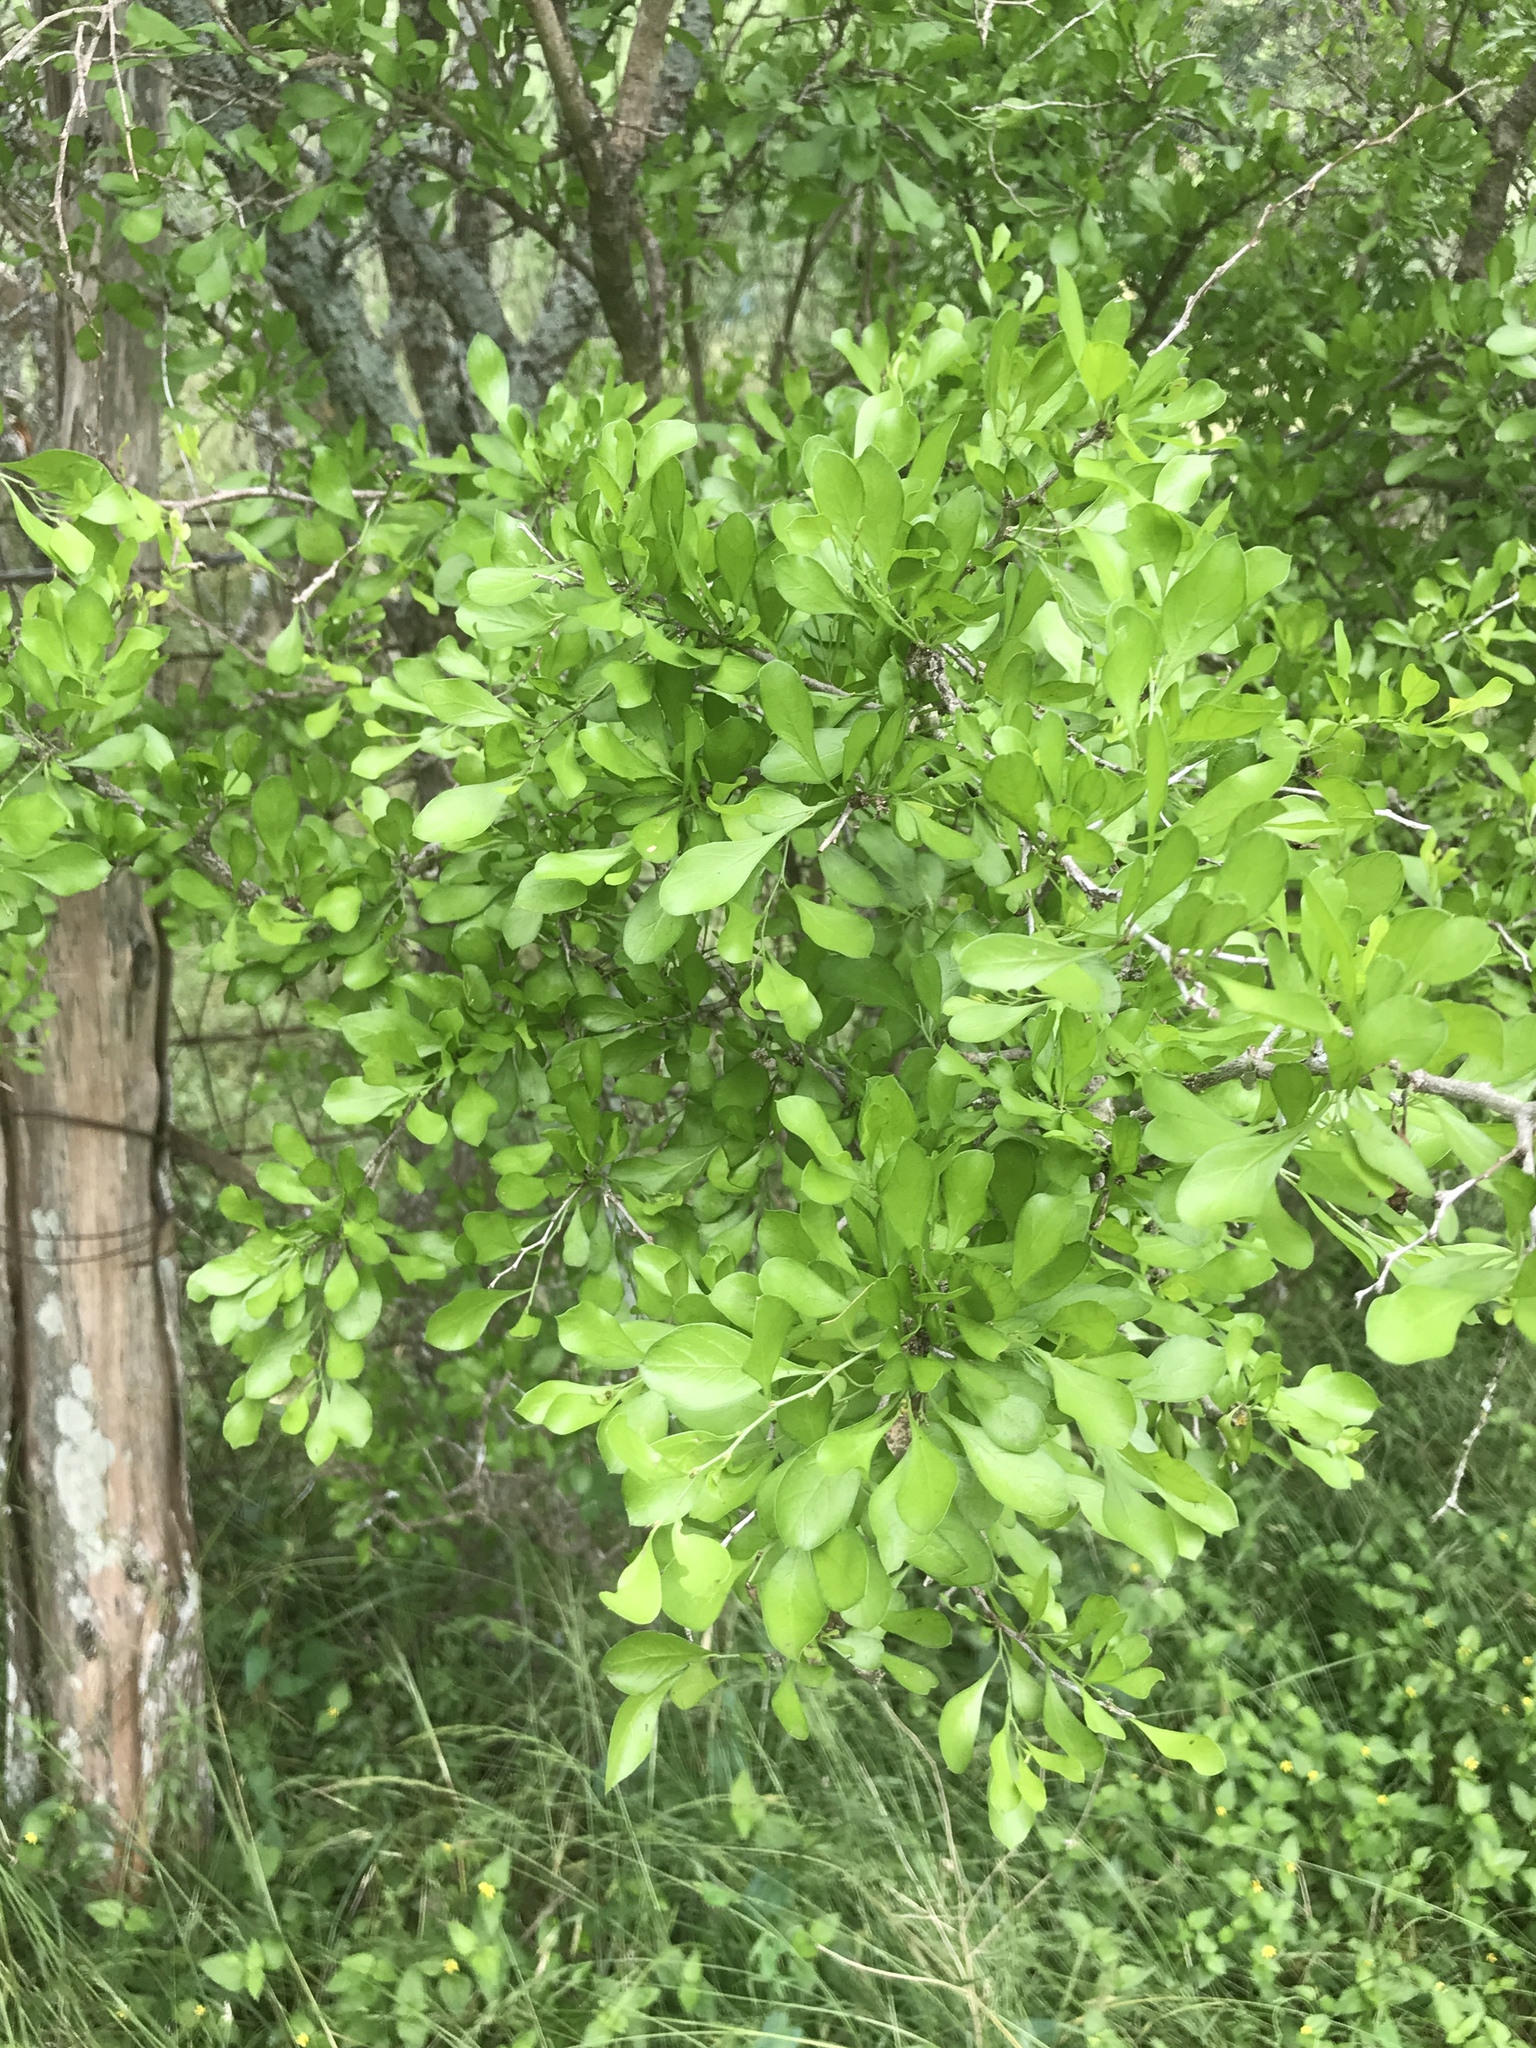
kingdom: Plantae
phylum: Tracheophyta
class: Magnoliopsida
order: Rosales
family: Rhamnaceae
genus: Condalia
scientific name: Condalia hookeri
